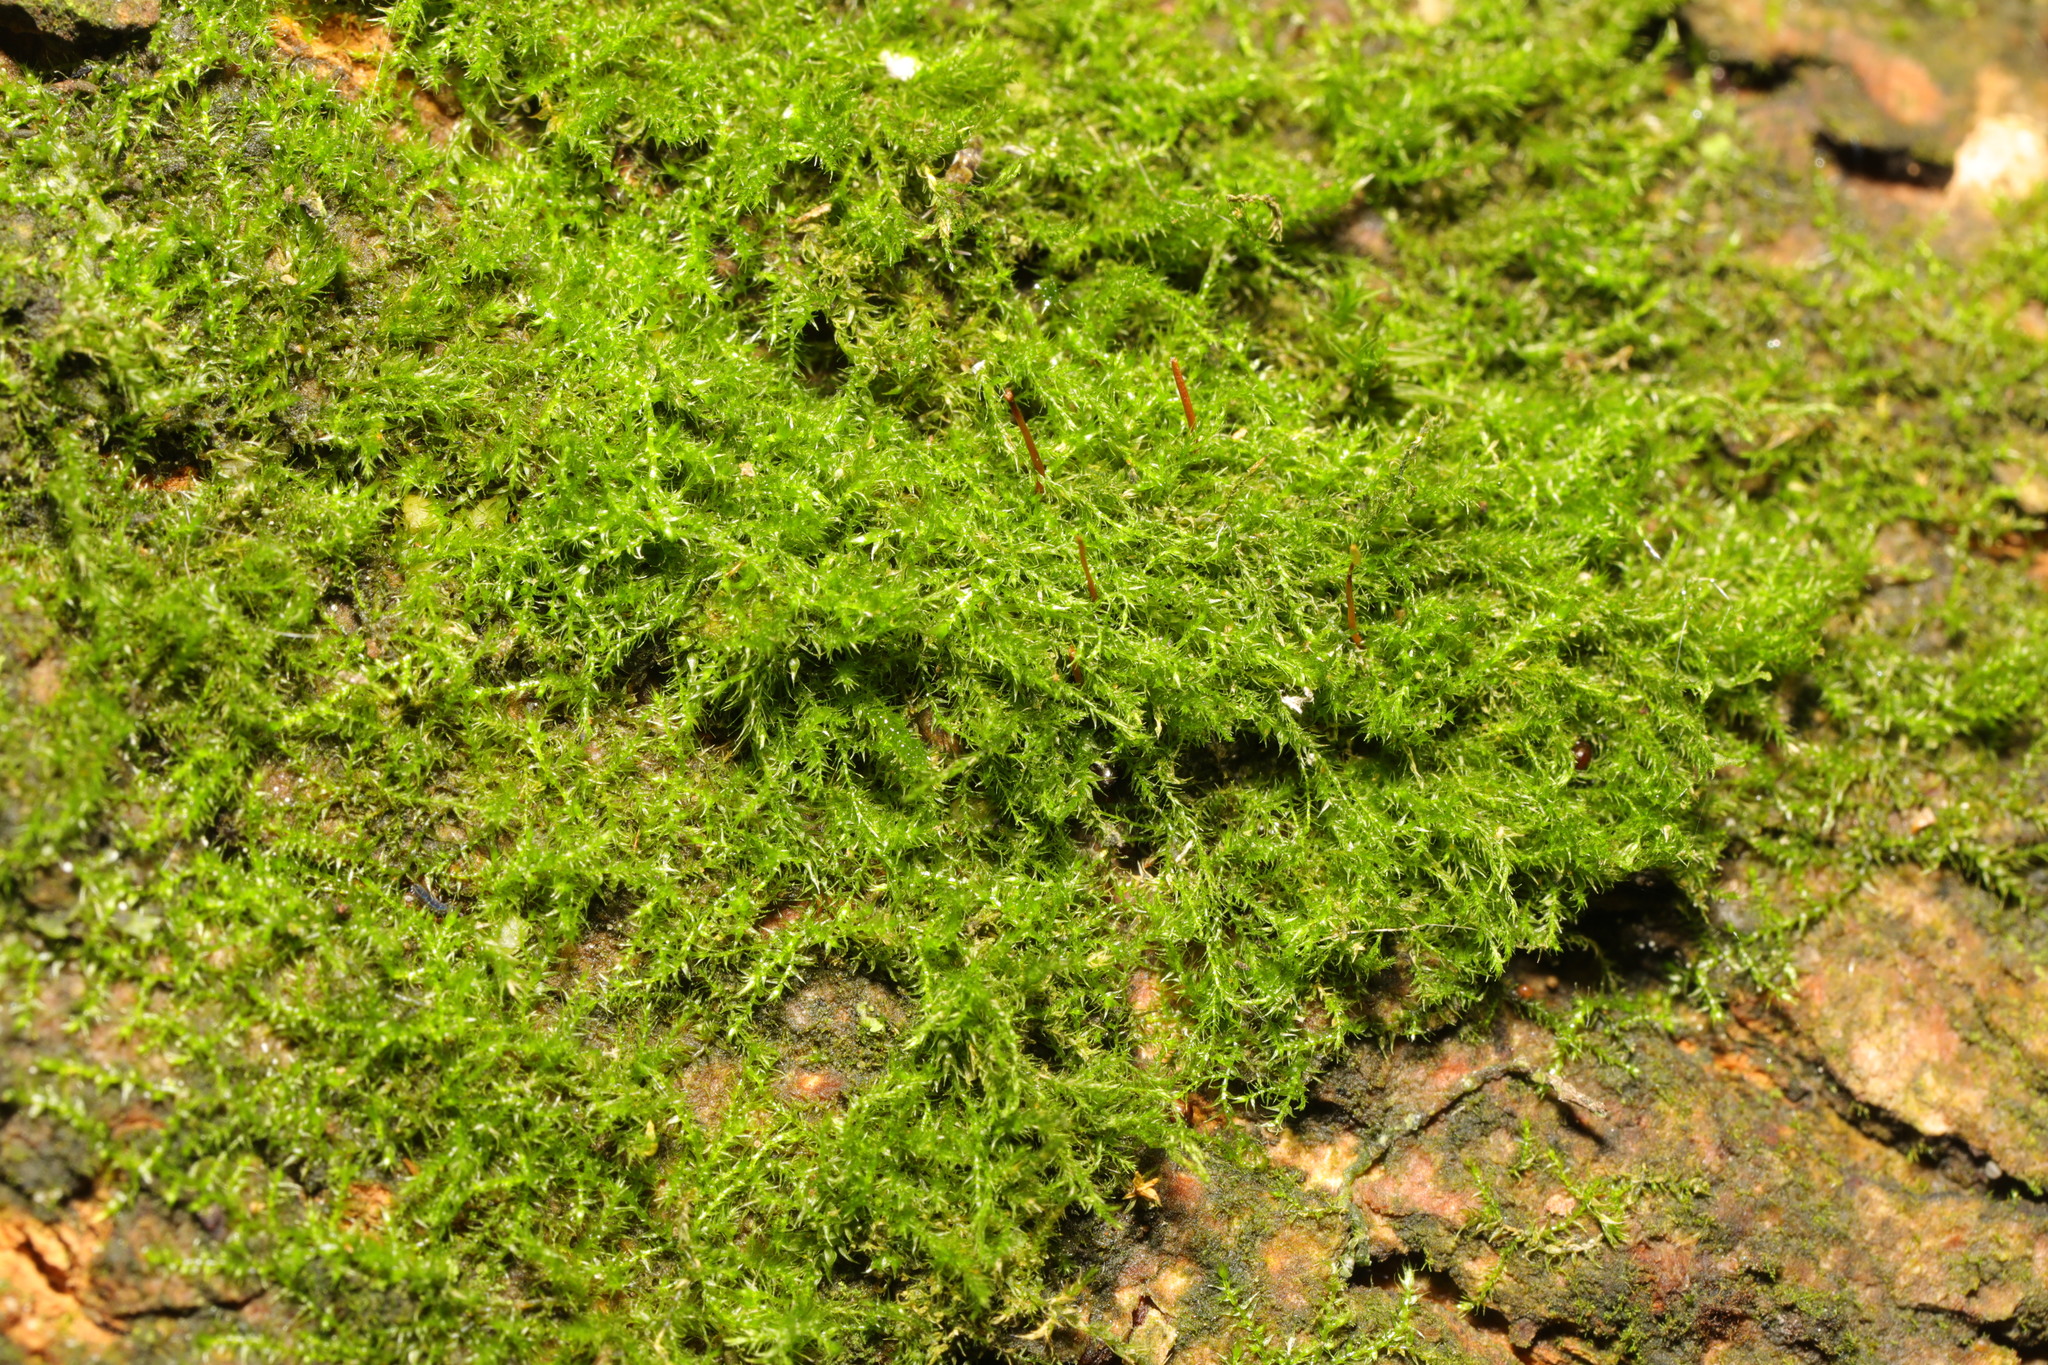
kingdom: Plantae
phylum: Bryophyta
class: Bryopsida
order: Hypnales
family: Amblystegiaceae
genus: Amblystegium
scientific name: Amblystegium serpens
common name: Jurkatzka's feather moss
